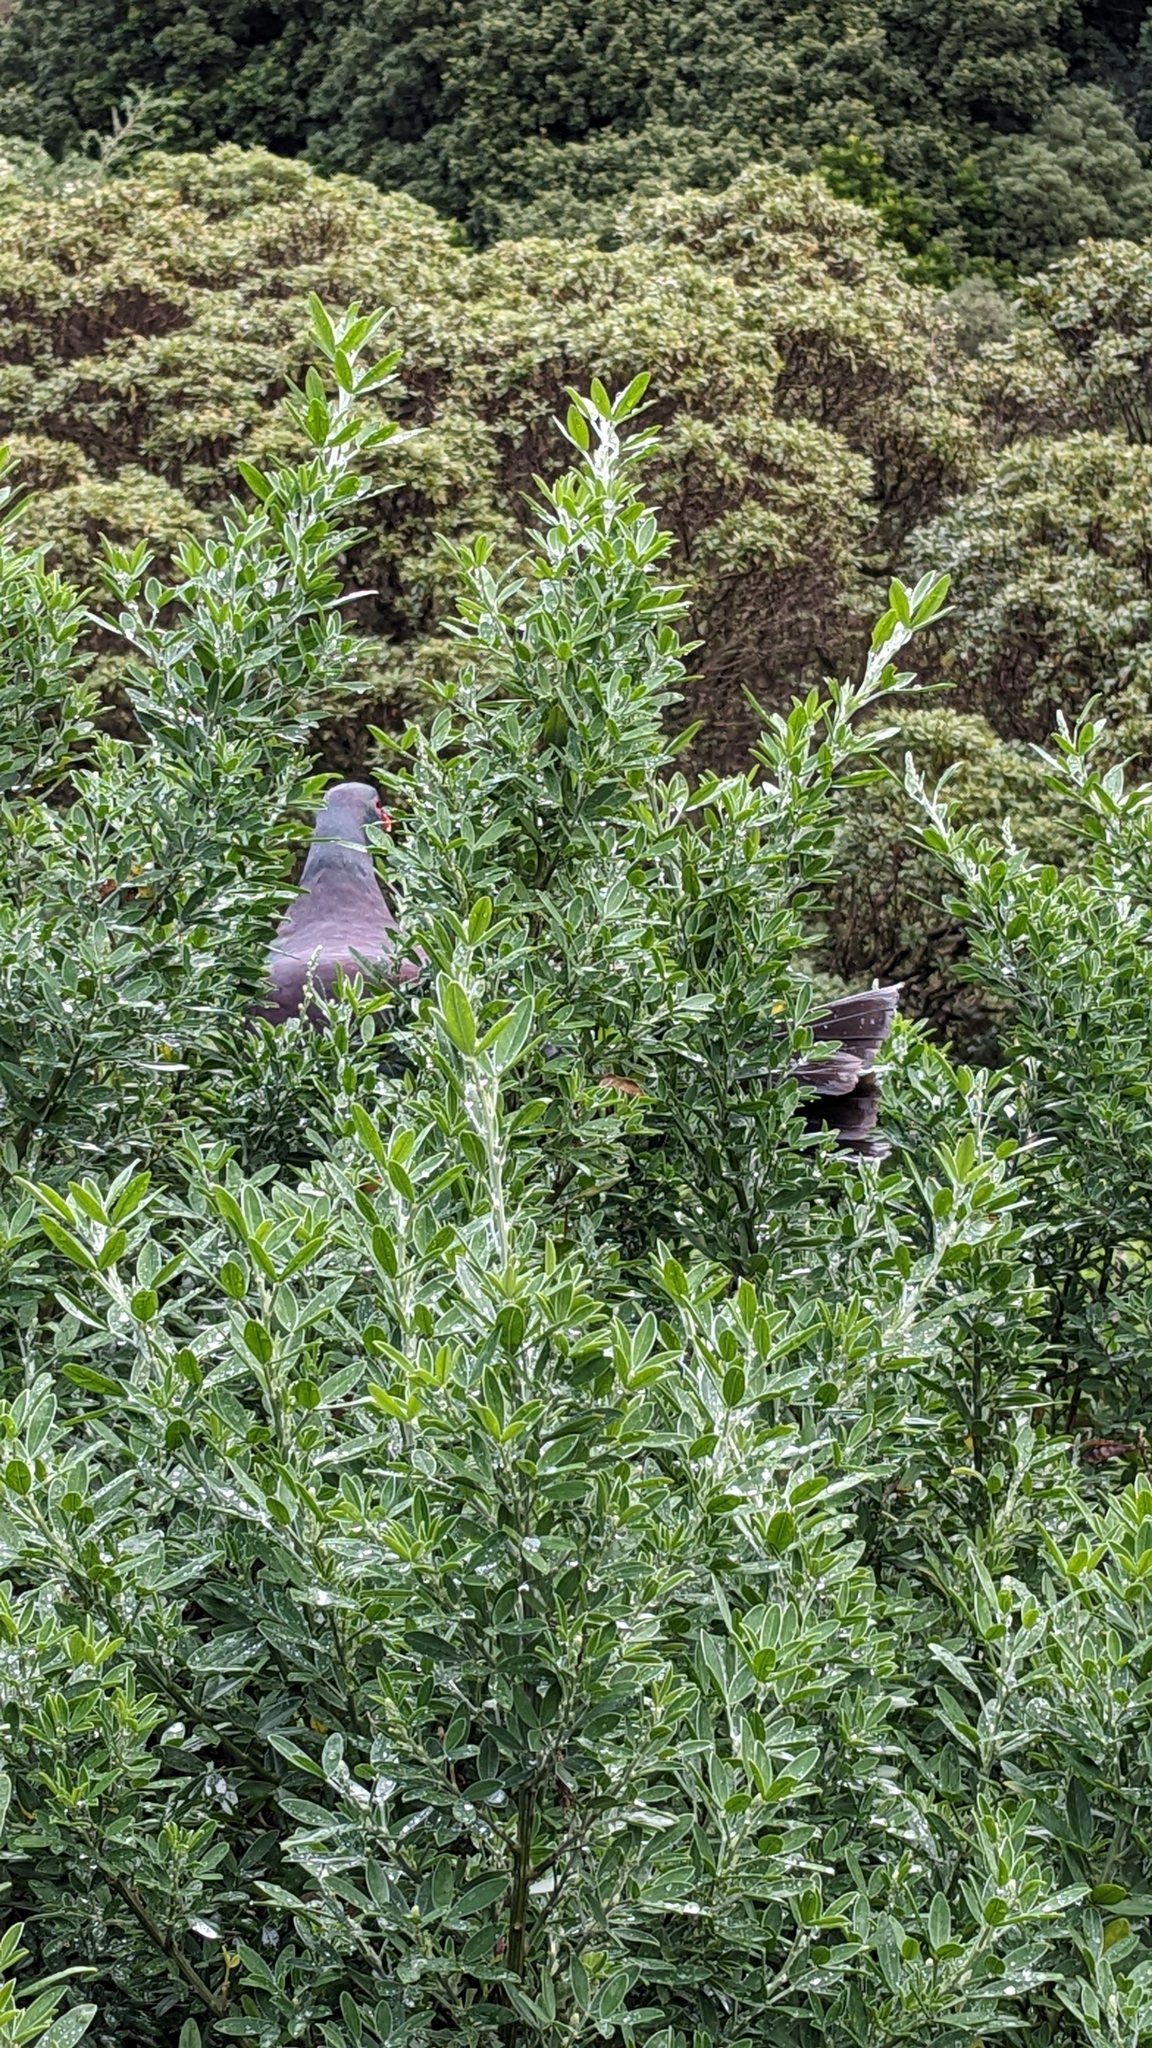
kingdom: Animalia
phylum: Chordata
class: Aves
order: Columbiformes
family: Columbidae
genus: Hemiphaga
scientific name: Hemiphaga novaeseelandiae
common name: New zealand pigeon
